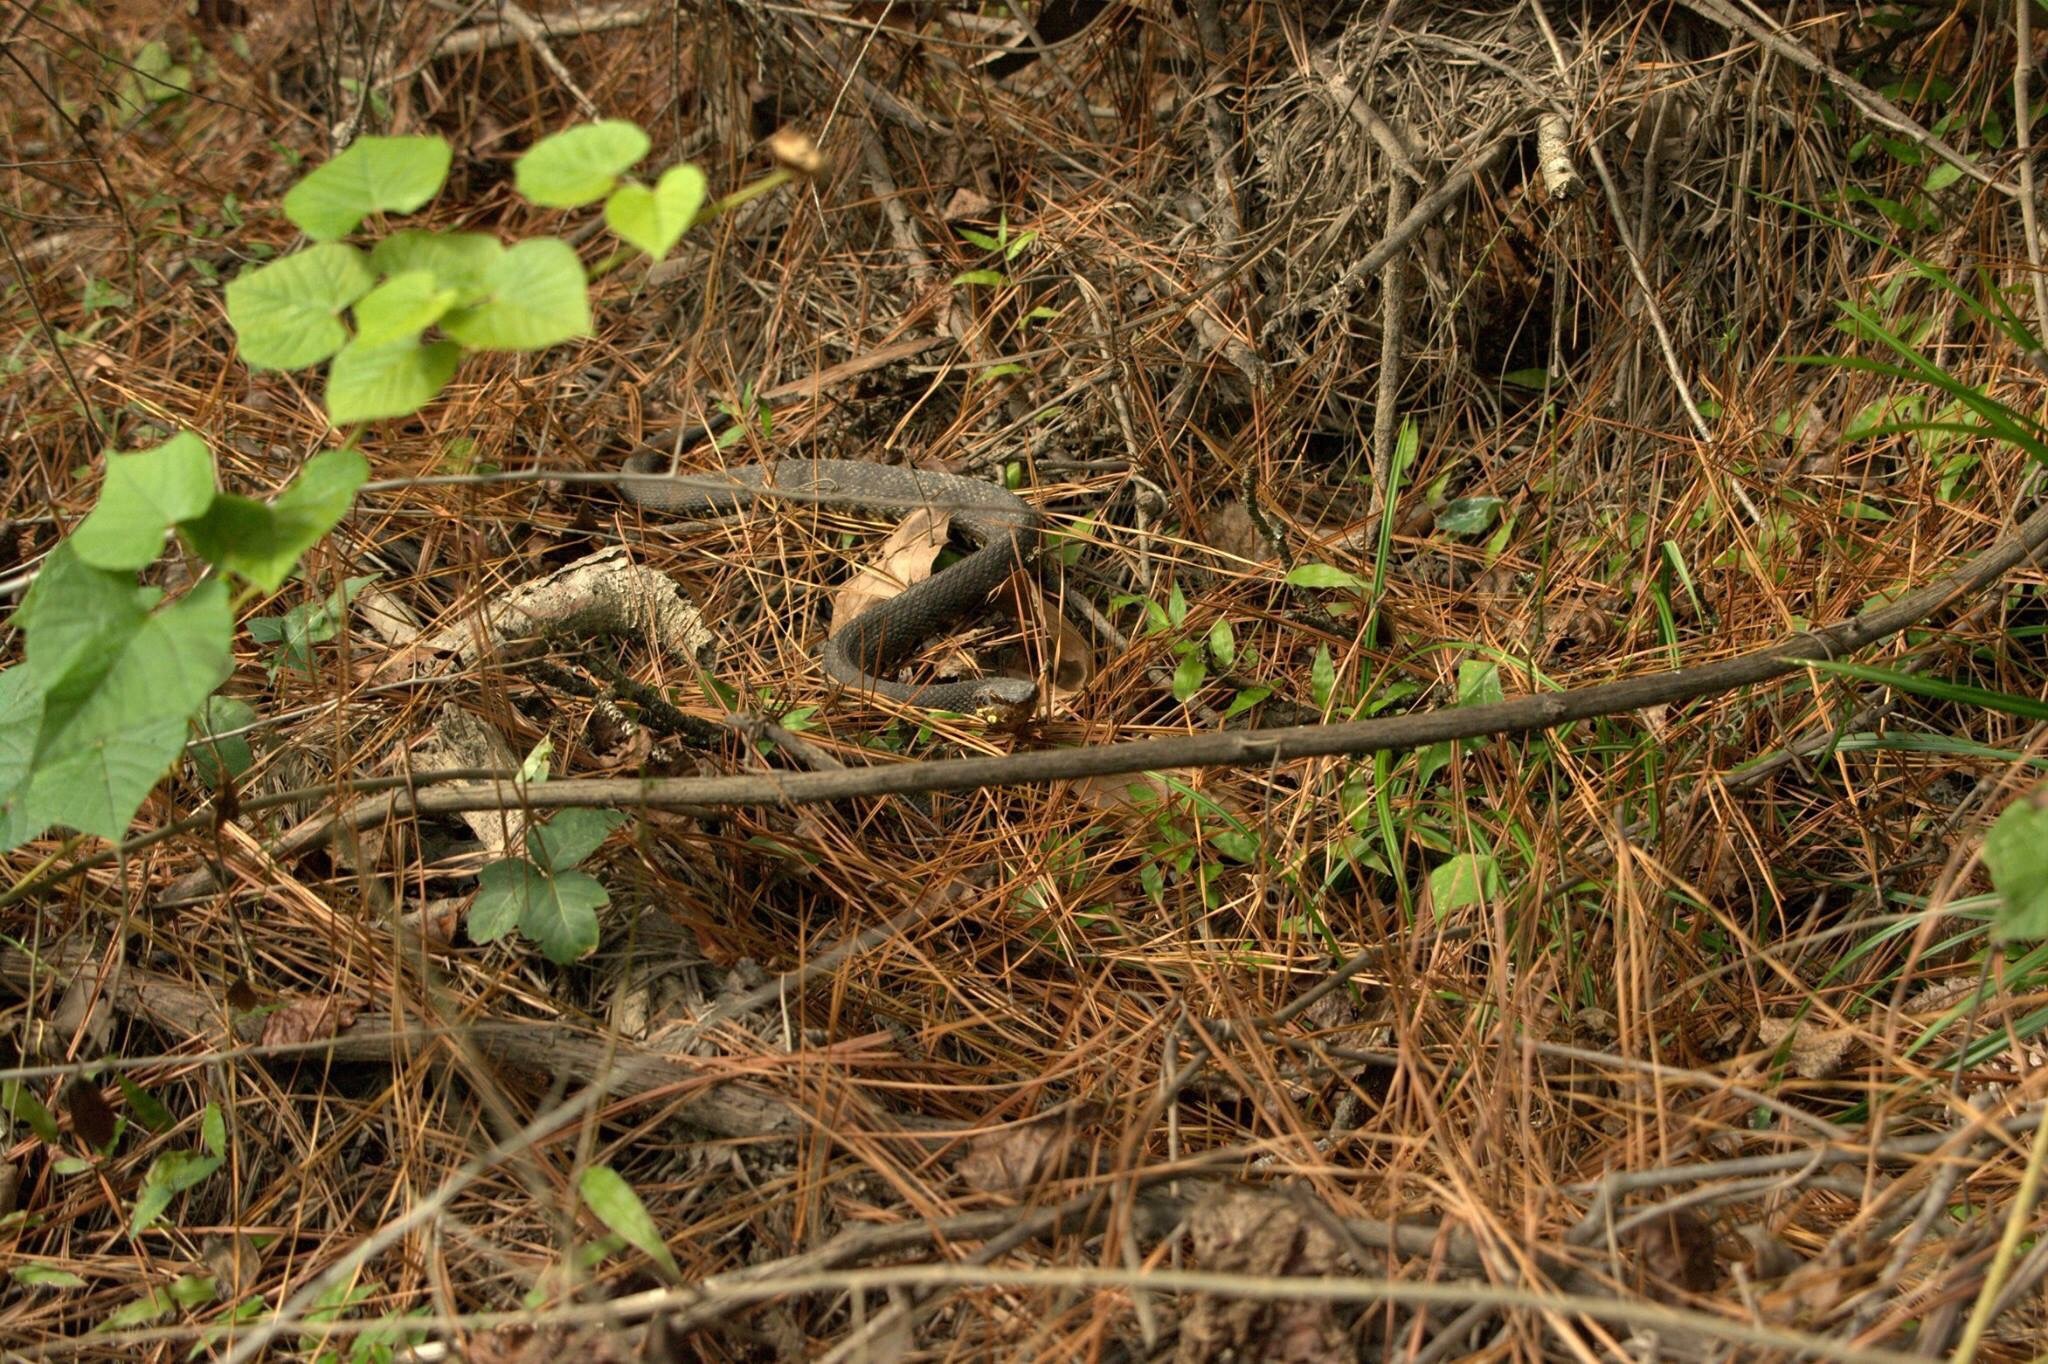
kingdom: Animalia
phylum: Chordata
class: Squamata
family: Viperidae
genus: Agkistrodon
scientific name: Agkistrodon piscivorus
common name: Cottonmouth
